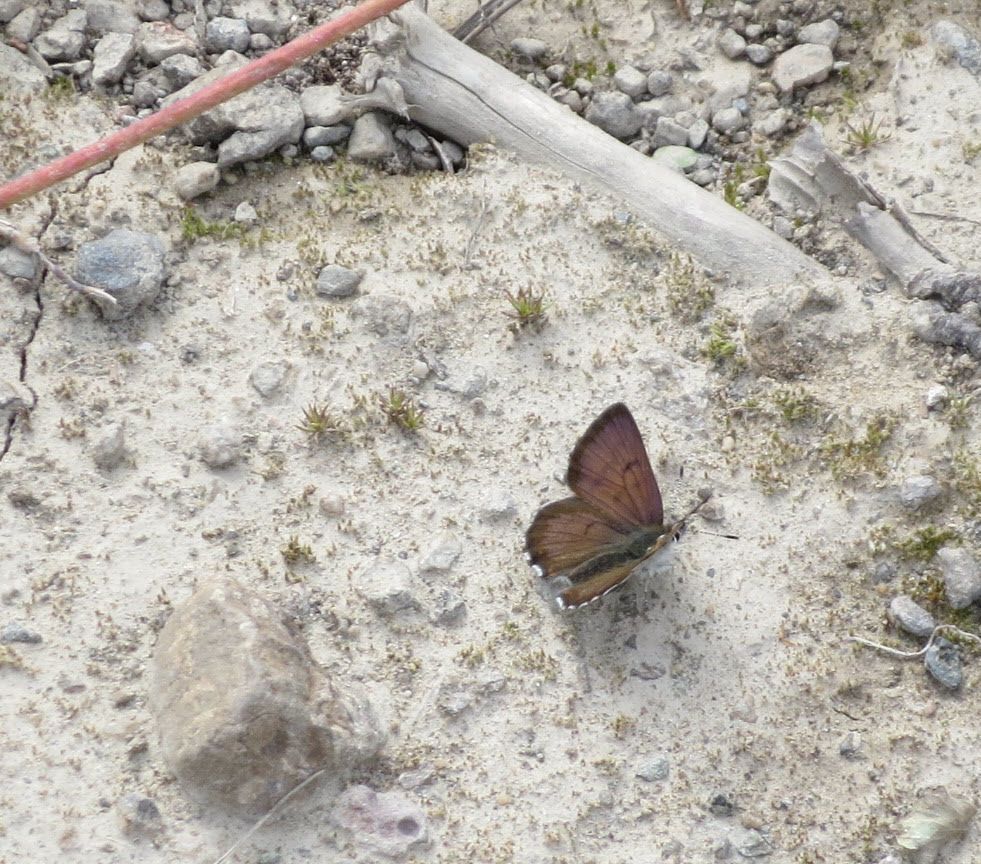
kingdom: Animalia
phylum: Arthropoda
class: Insecta
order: Lepidoptera
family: Lycaenidae
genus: Tharsalea
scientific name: Tharsalea mariposa
